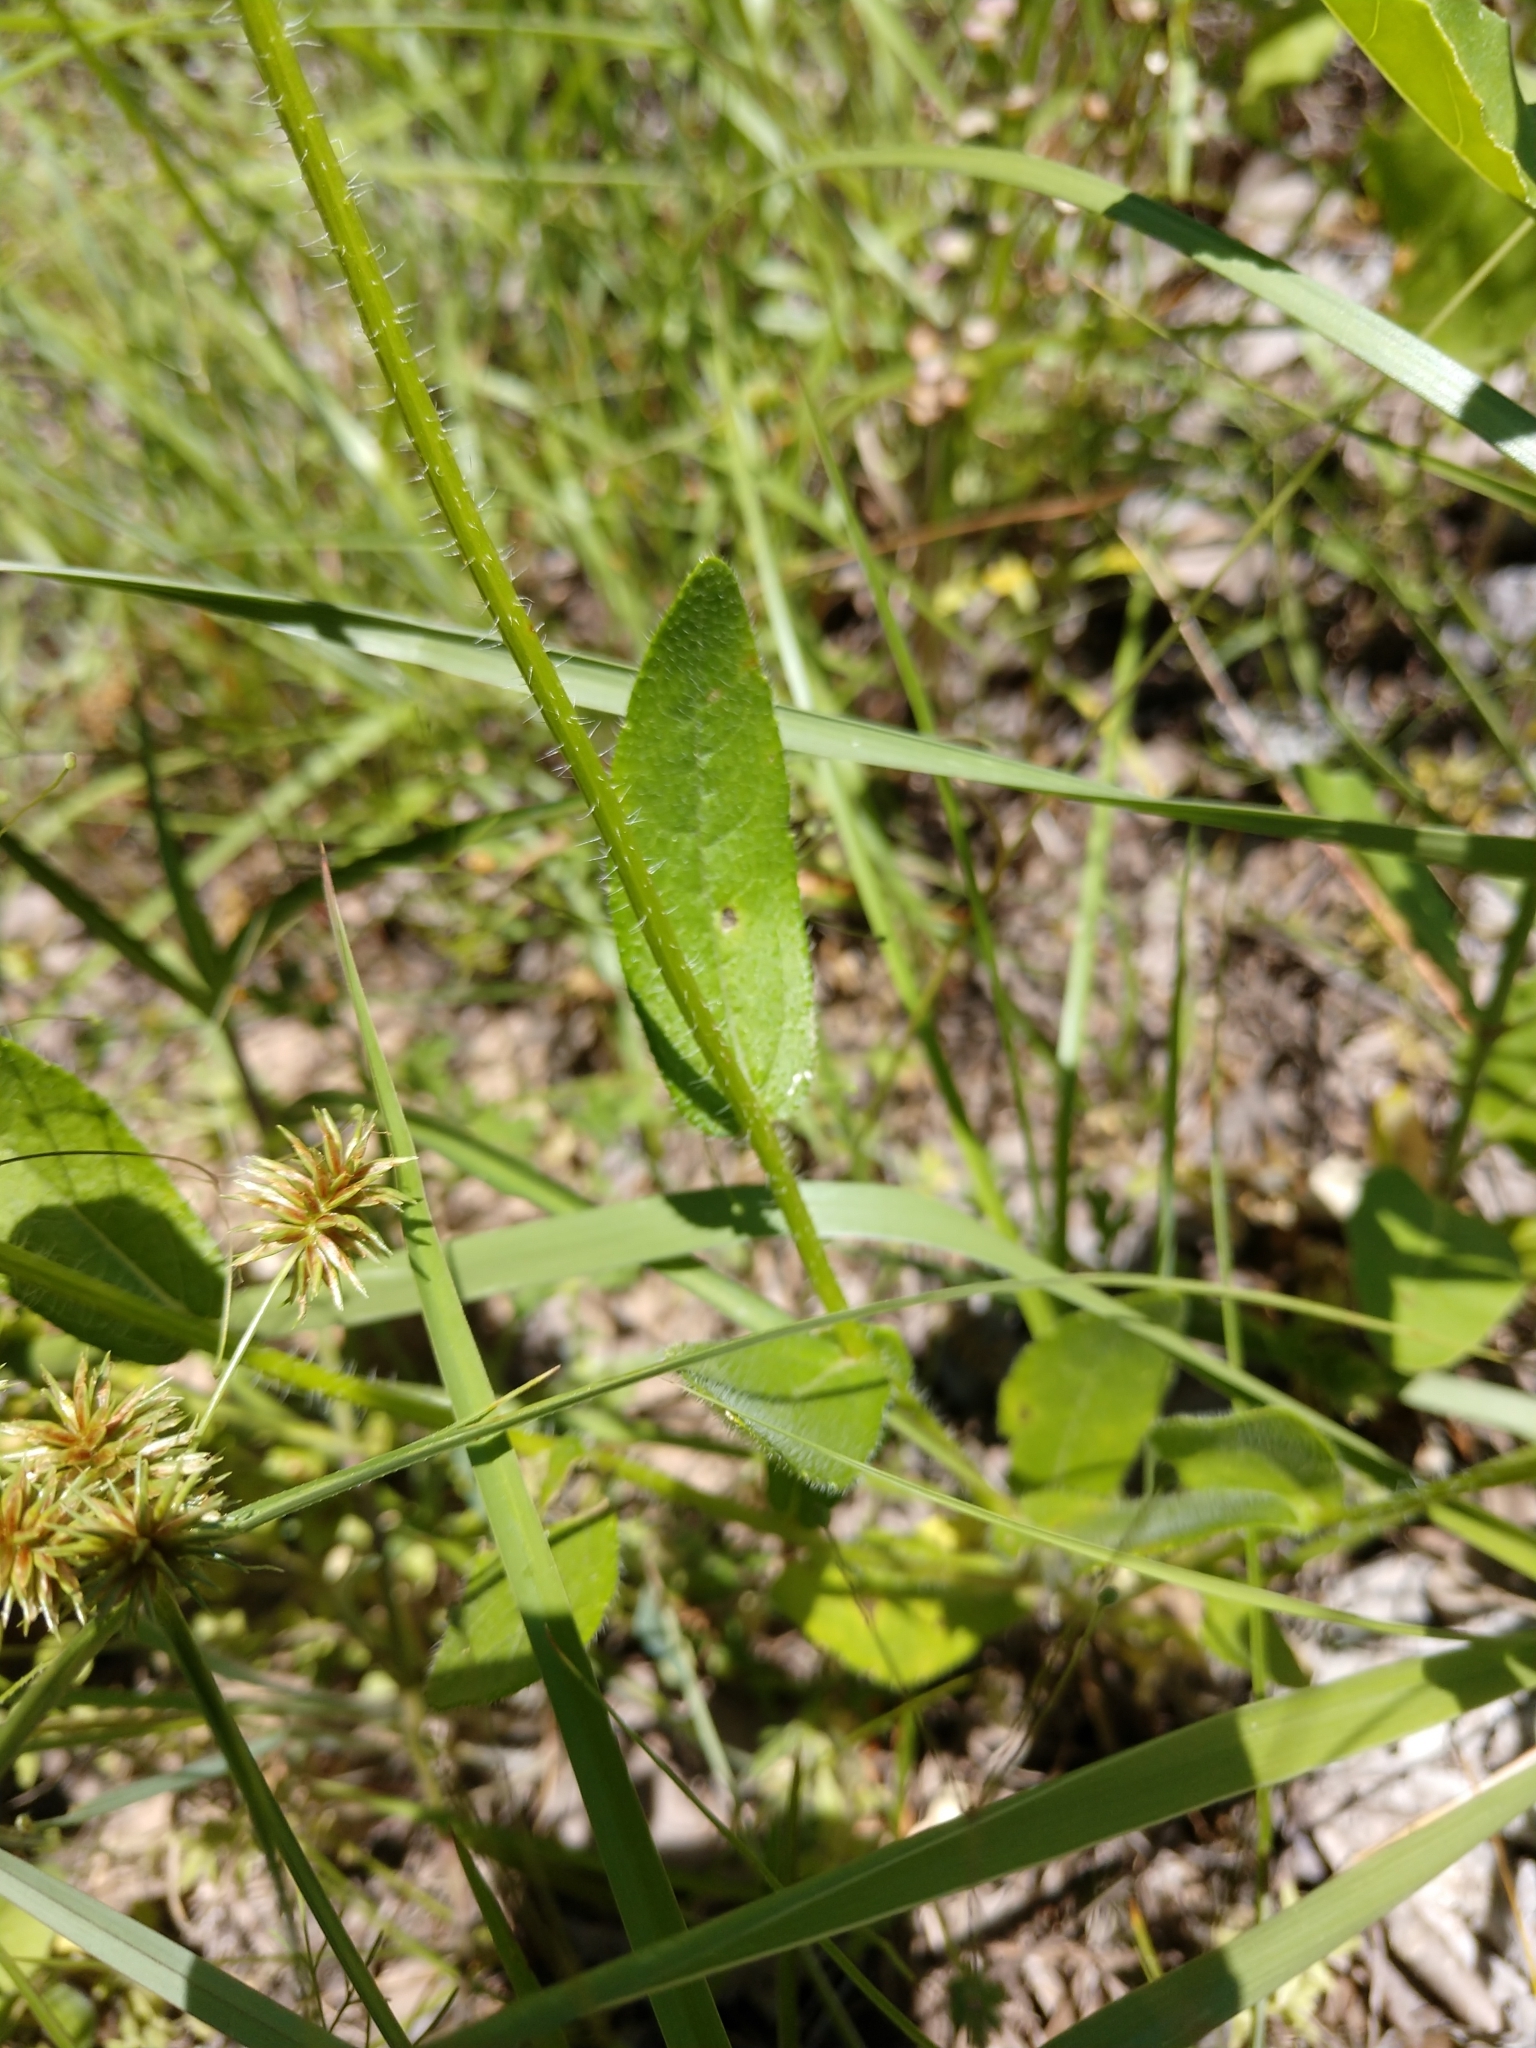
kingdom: Plantae
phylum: Tracheophyta
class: Magnoliopsida
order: Asterales
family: Asteraceae
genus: Rudbeckia
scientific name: Rudbeckia hirta
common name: Black-eyed-susan
